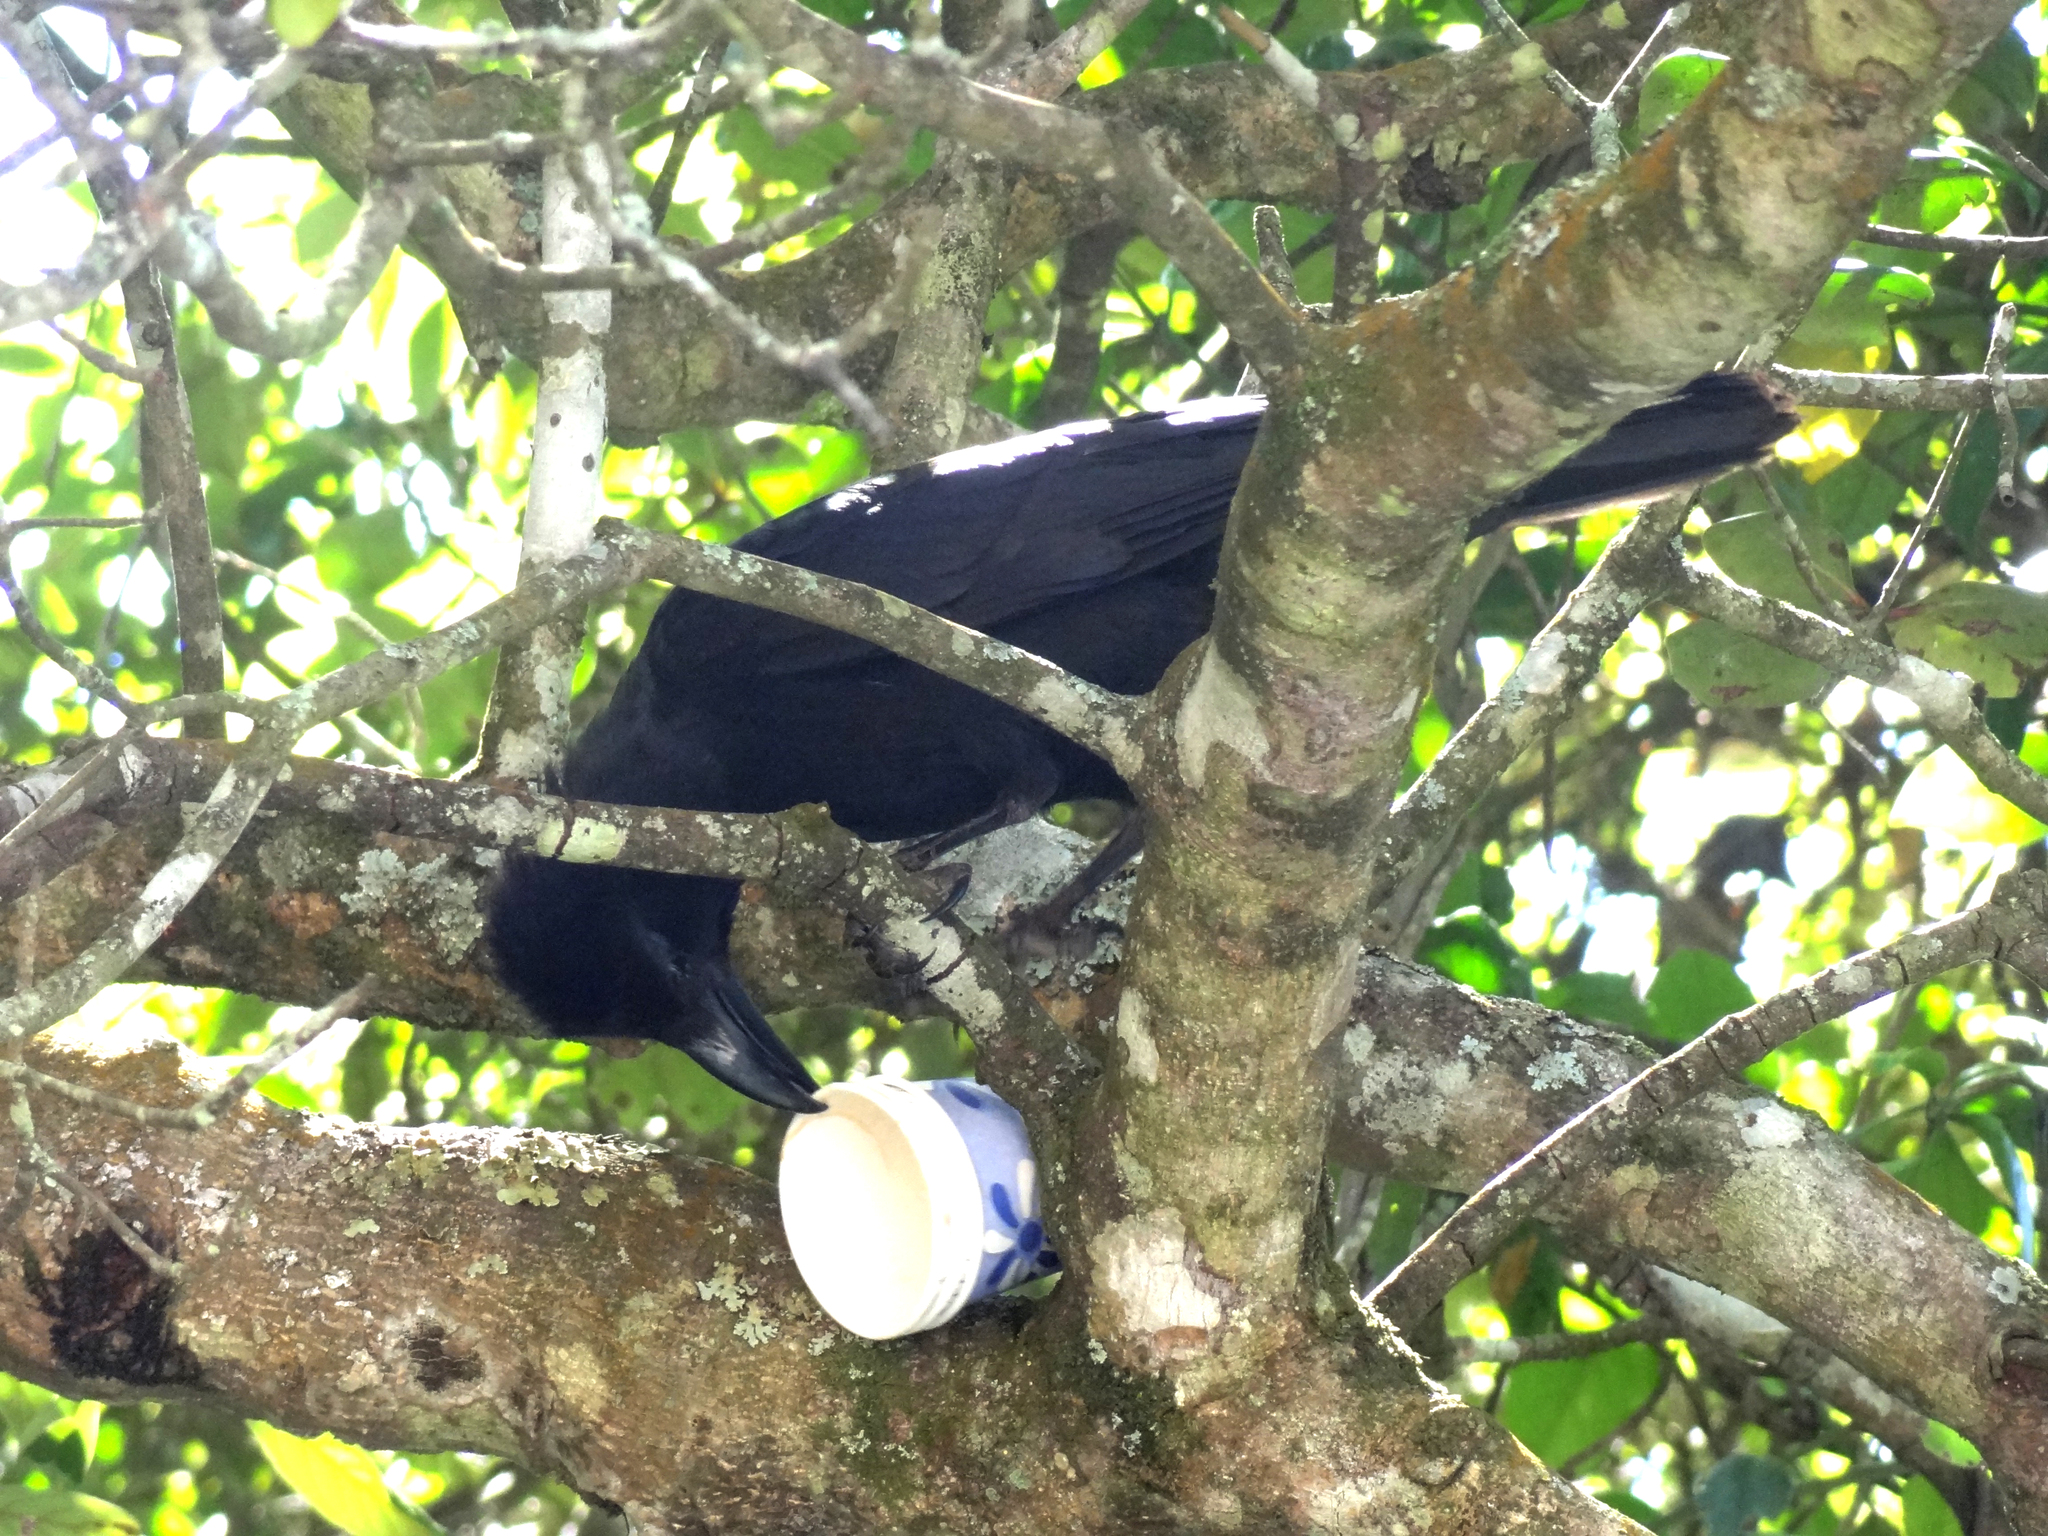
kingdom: Animalia
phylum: Chordata
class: Aves
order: Passeriformes
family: Corvidae
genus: Corvus
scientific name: Corvus macrorhynchos
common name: Large-billed crow
